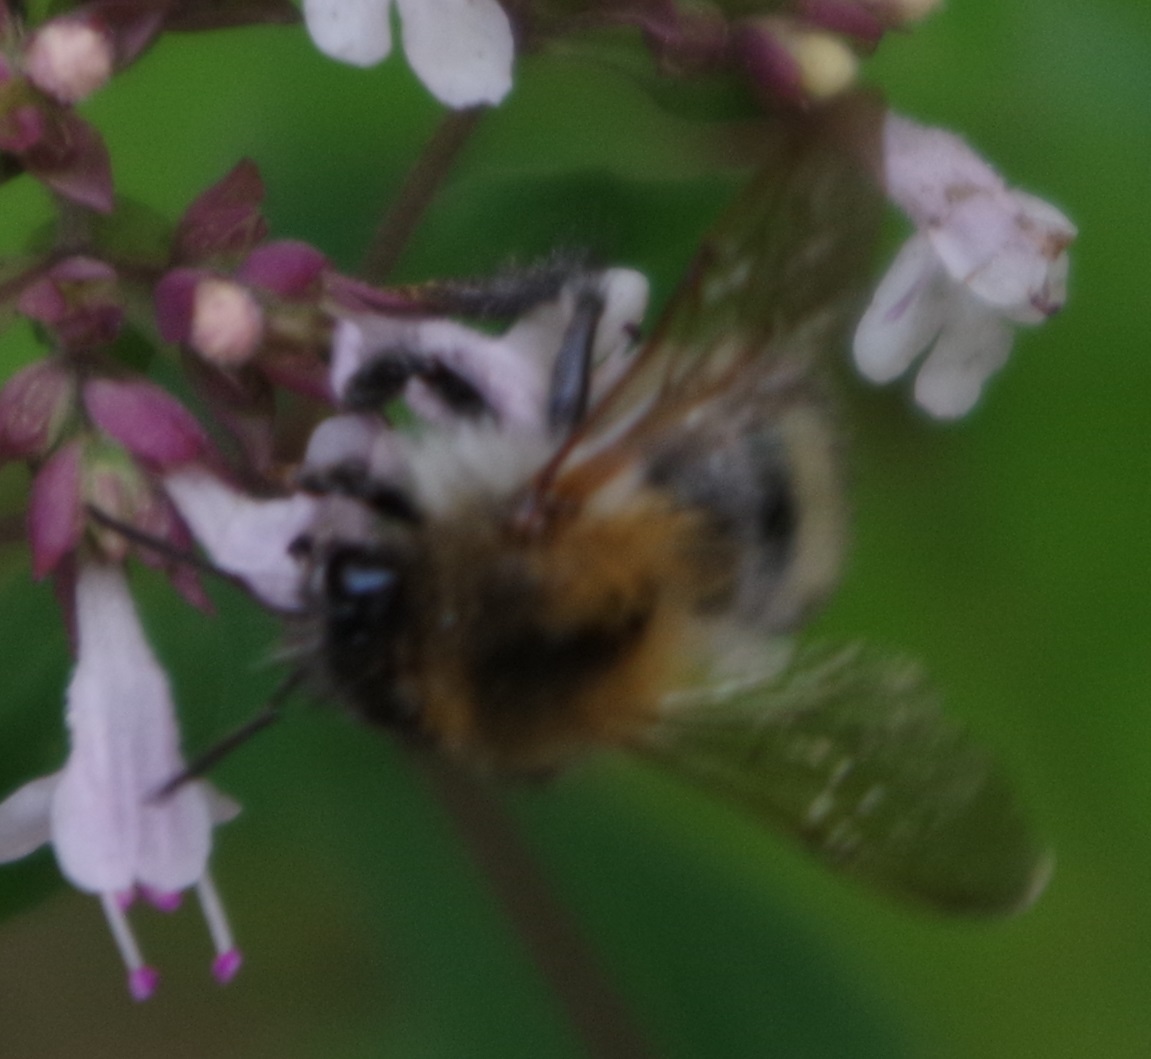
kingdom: Animalia
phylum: Arthropoda
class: Insecta
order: Hymenoptera
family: Apidae
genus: Bombus
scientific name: Bombus pascuorum
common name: Common carder bee
